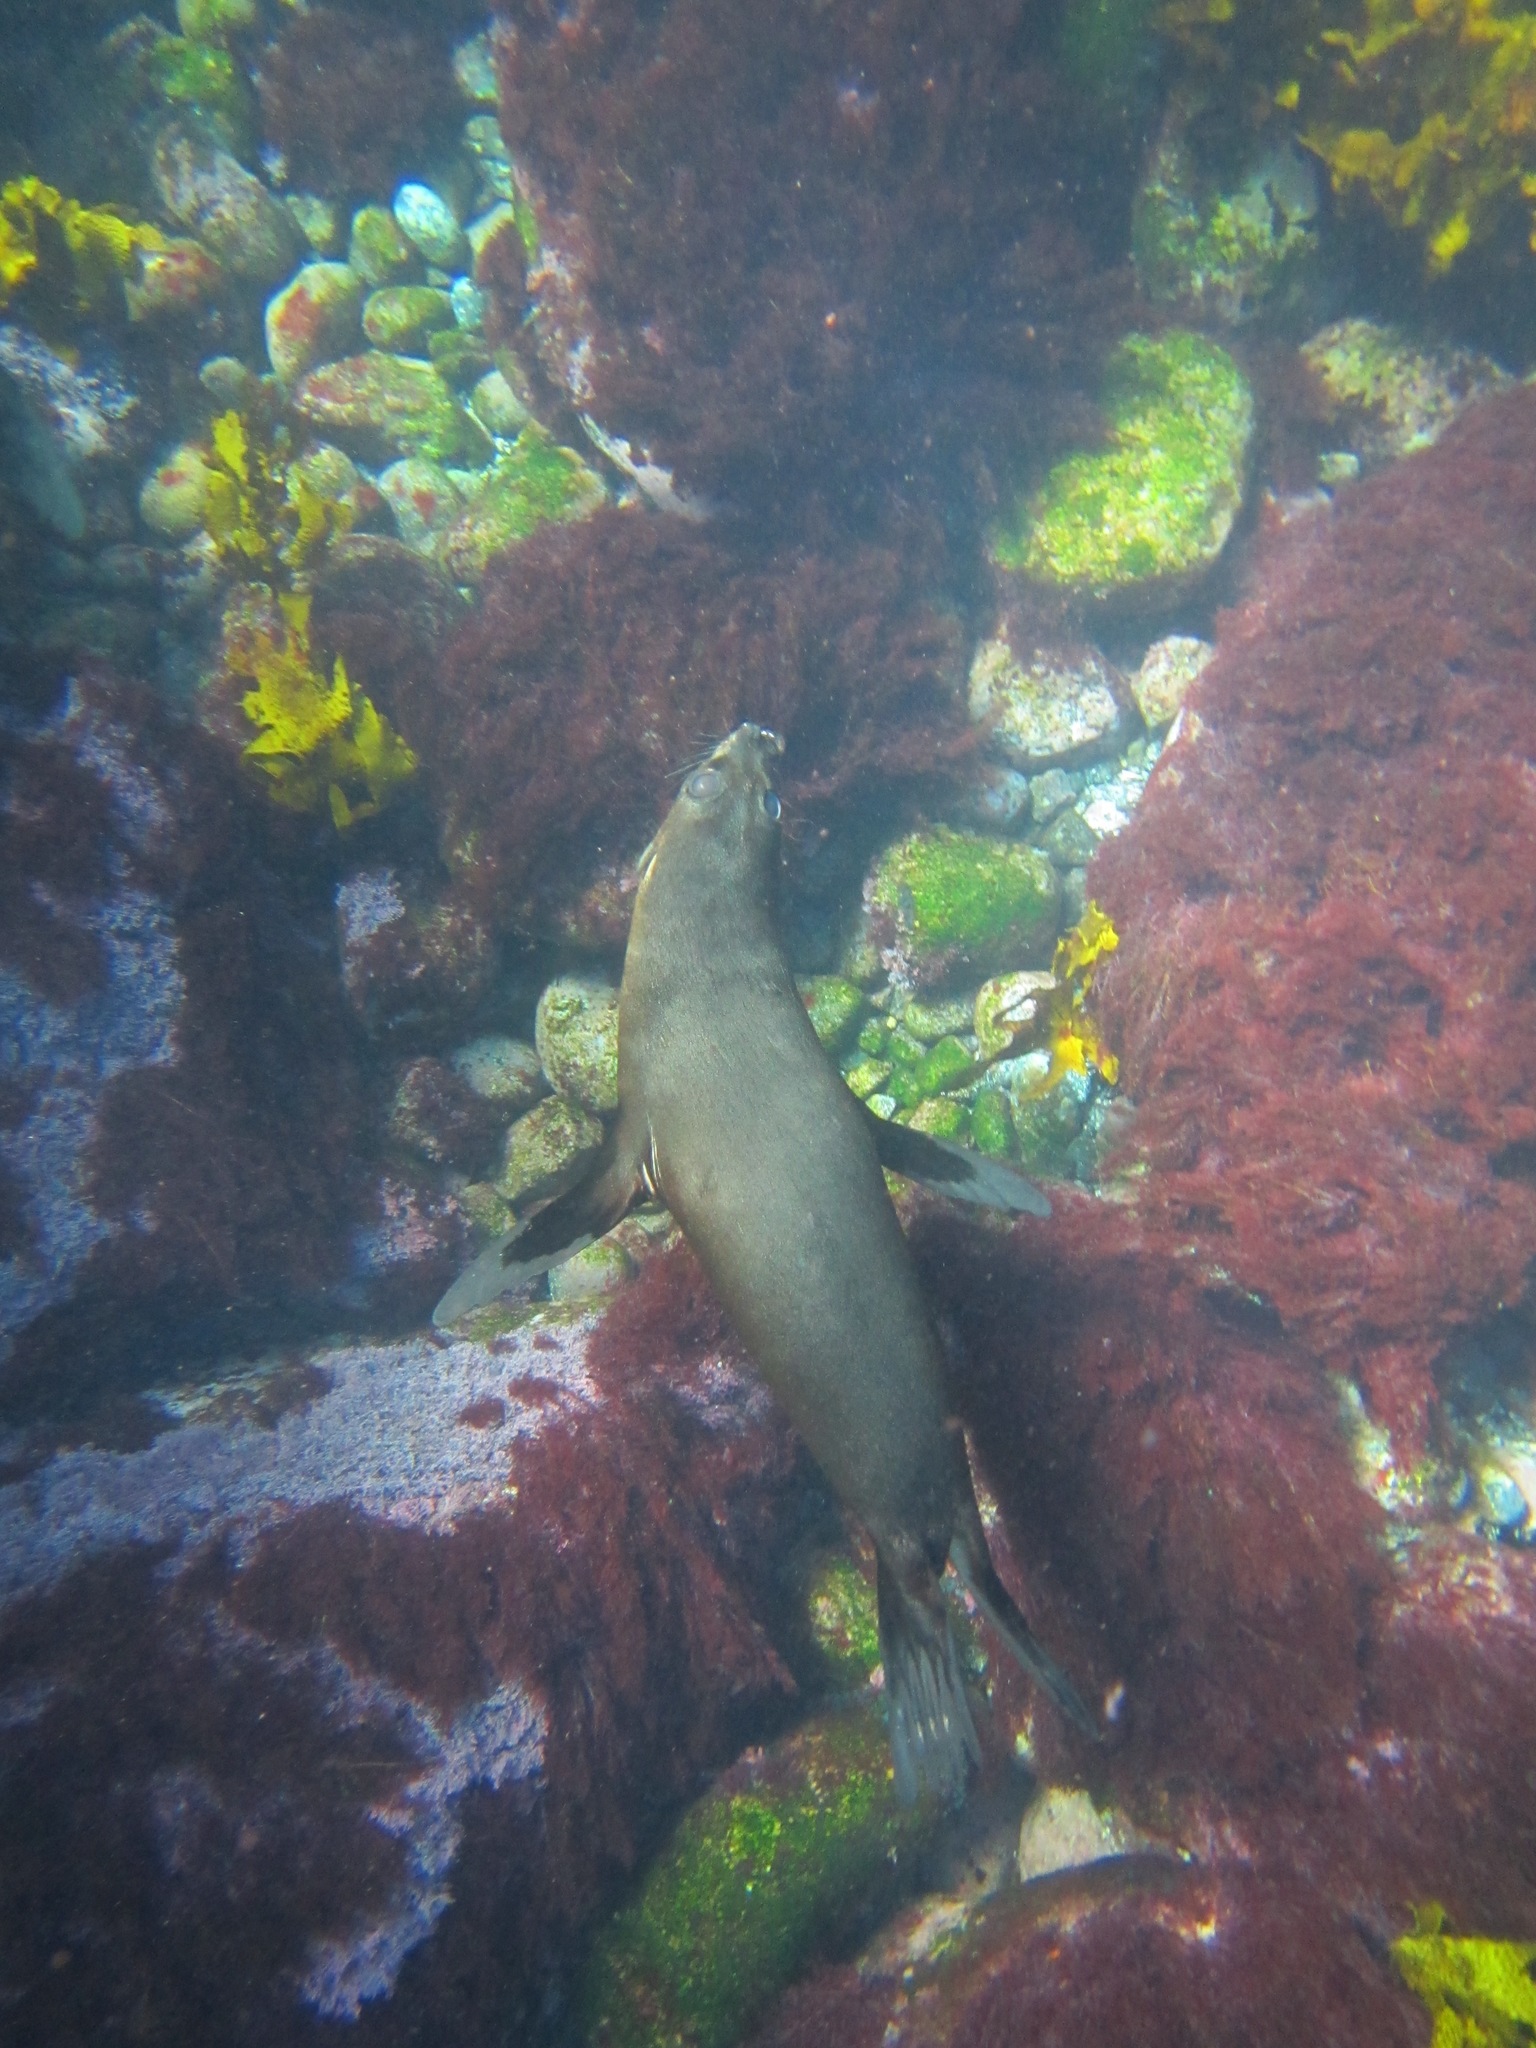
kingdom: Animalia
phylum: Chordata
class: Mammalia
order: Carnivora
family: Otariidae
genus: Arctocephalus
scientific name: Arctocephalus forsteri
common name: New zealand fur seal
